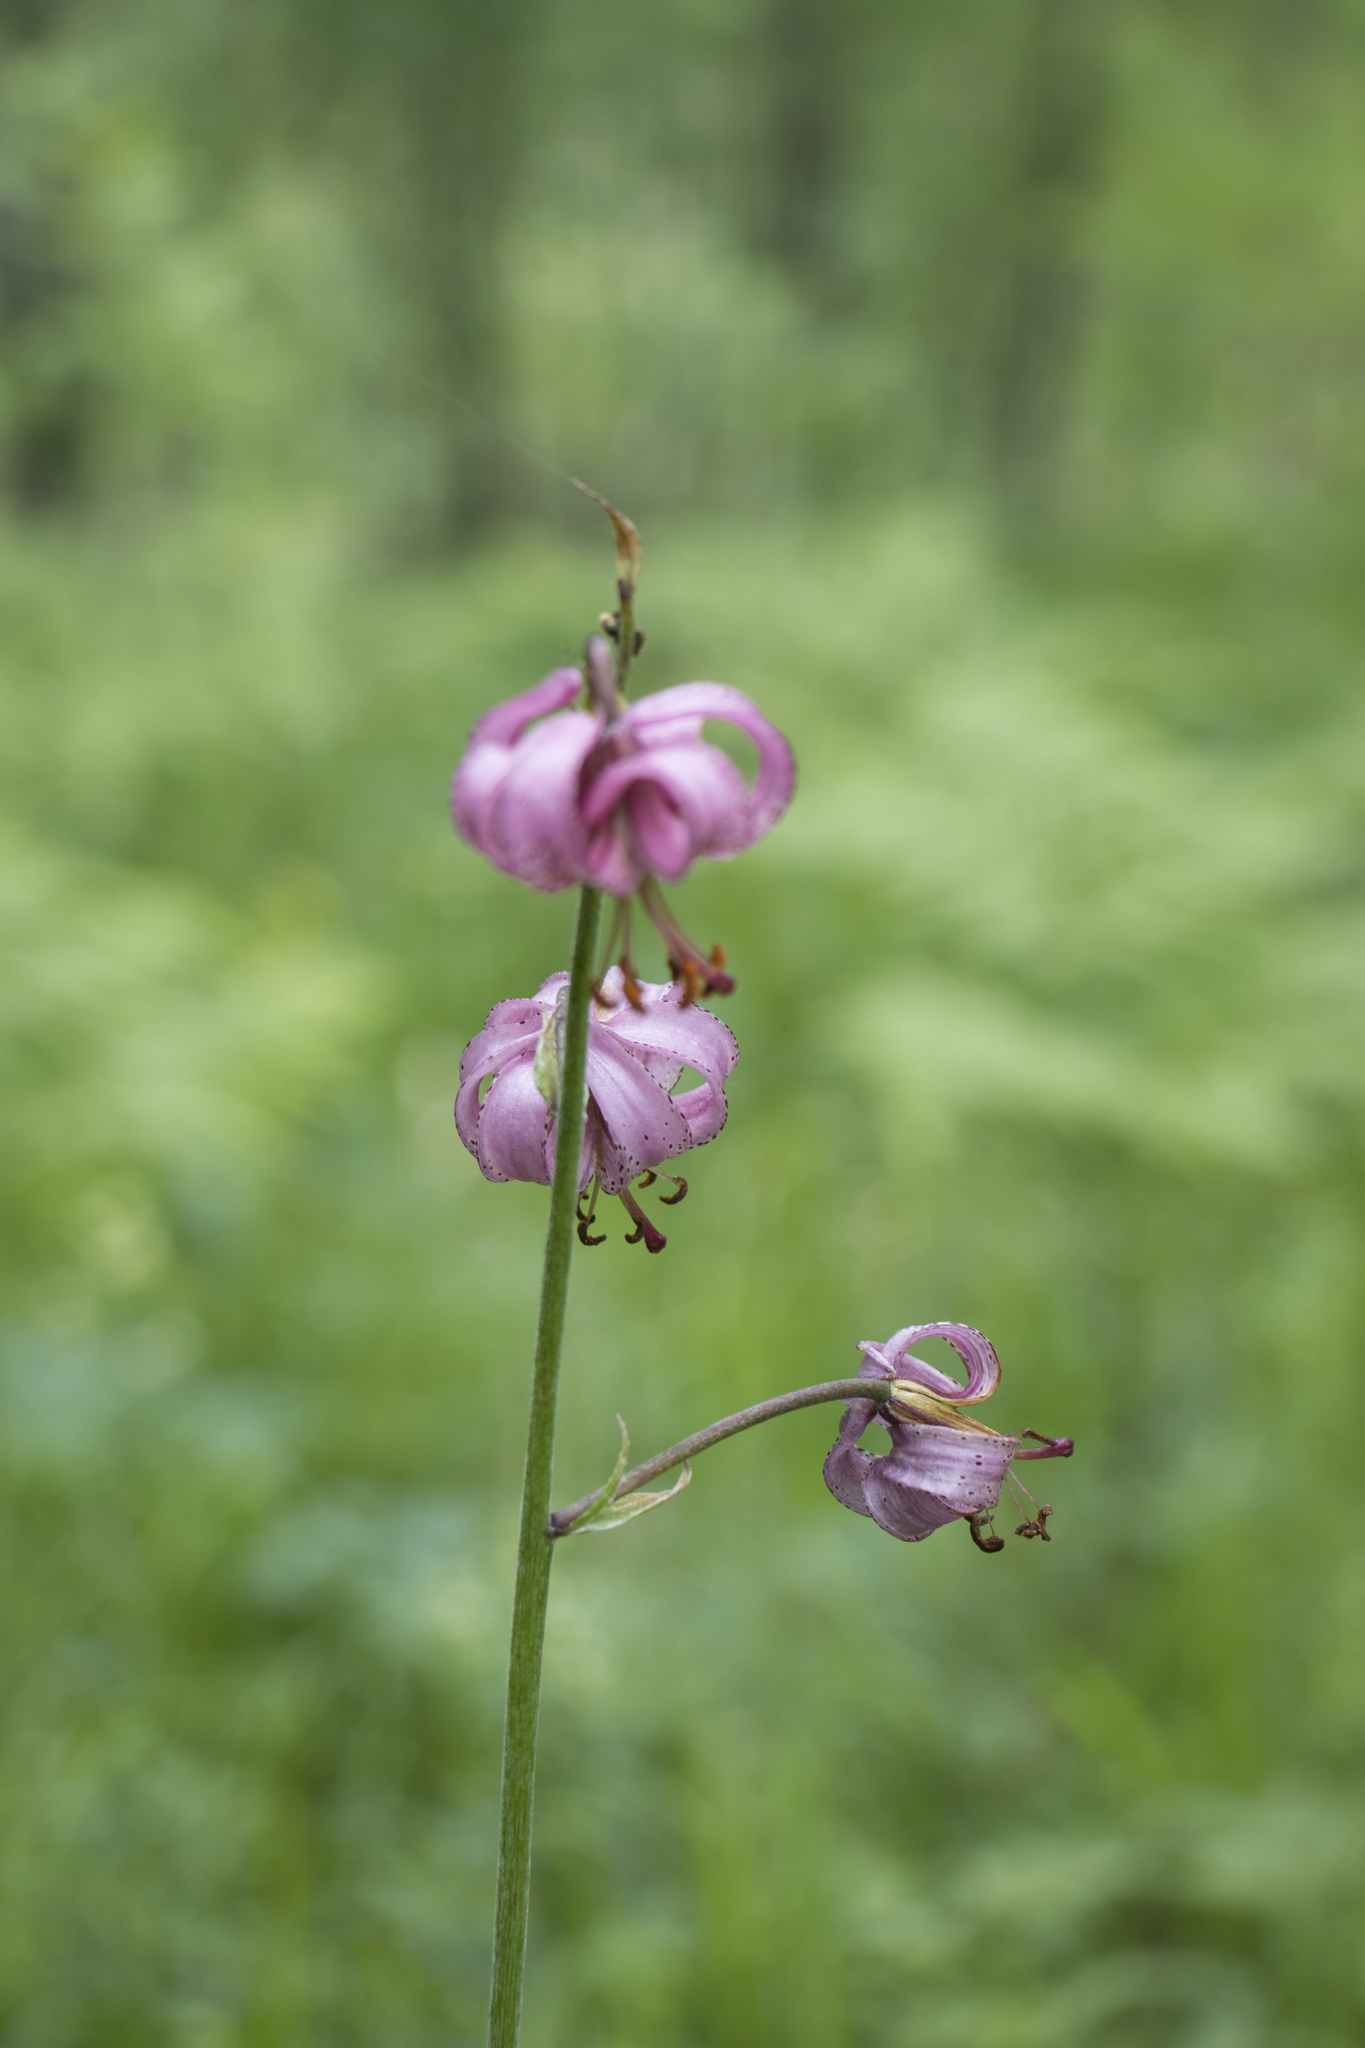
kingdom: Plantae
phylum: Tracheophyta
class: Liliopsida
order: Liliales
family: Liliaceae
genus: Lilium
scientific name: Lilium martagon
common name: Martagon lily
